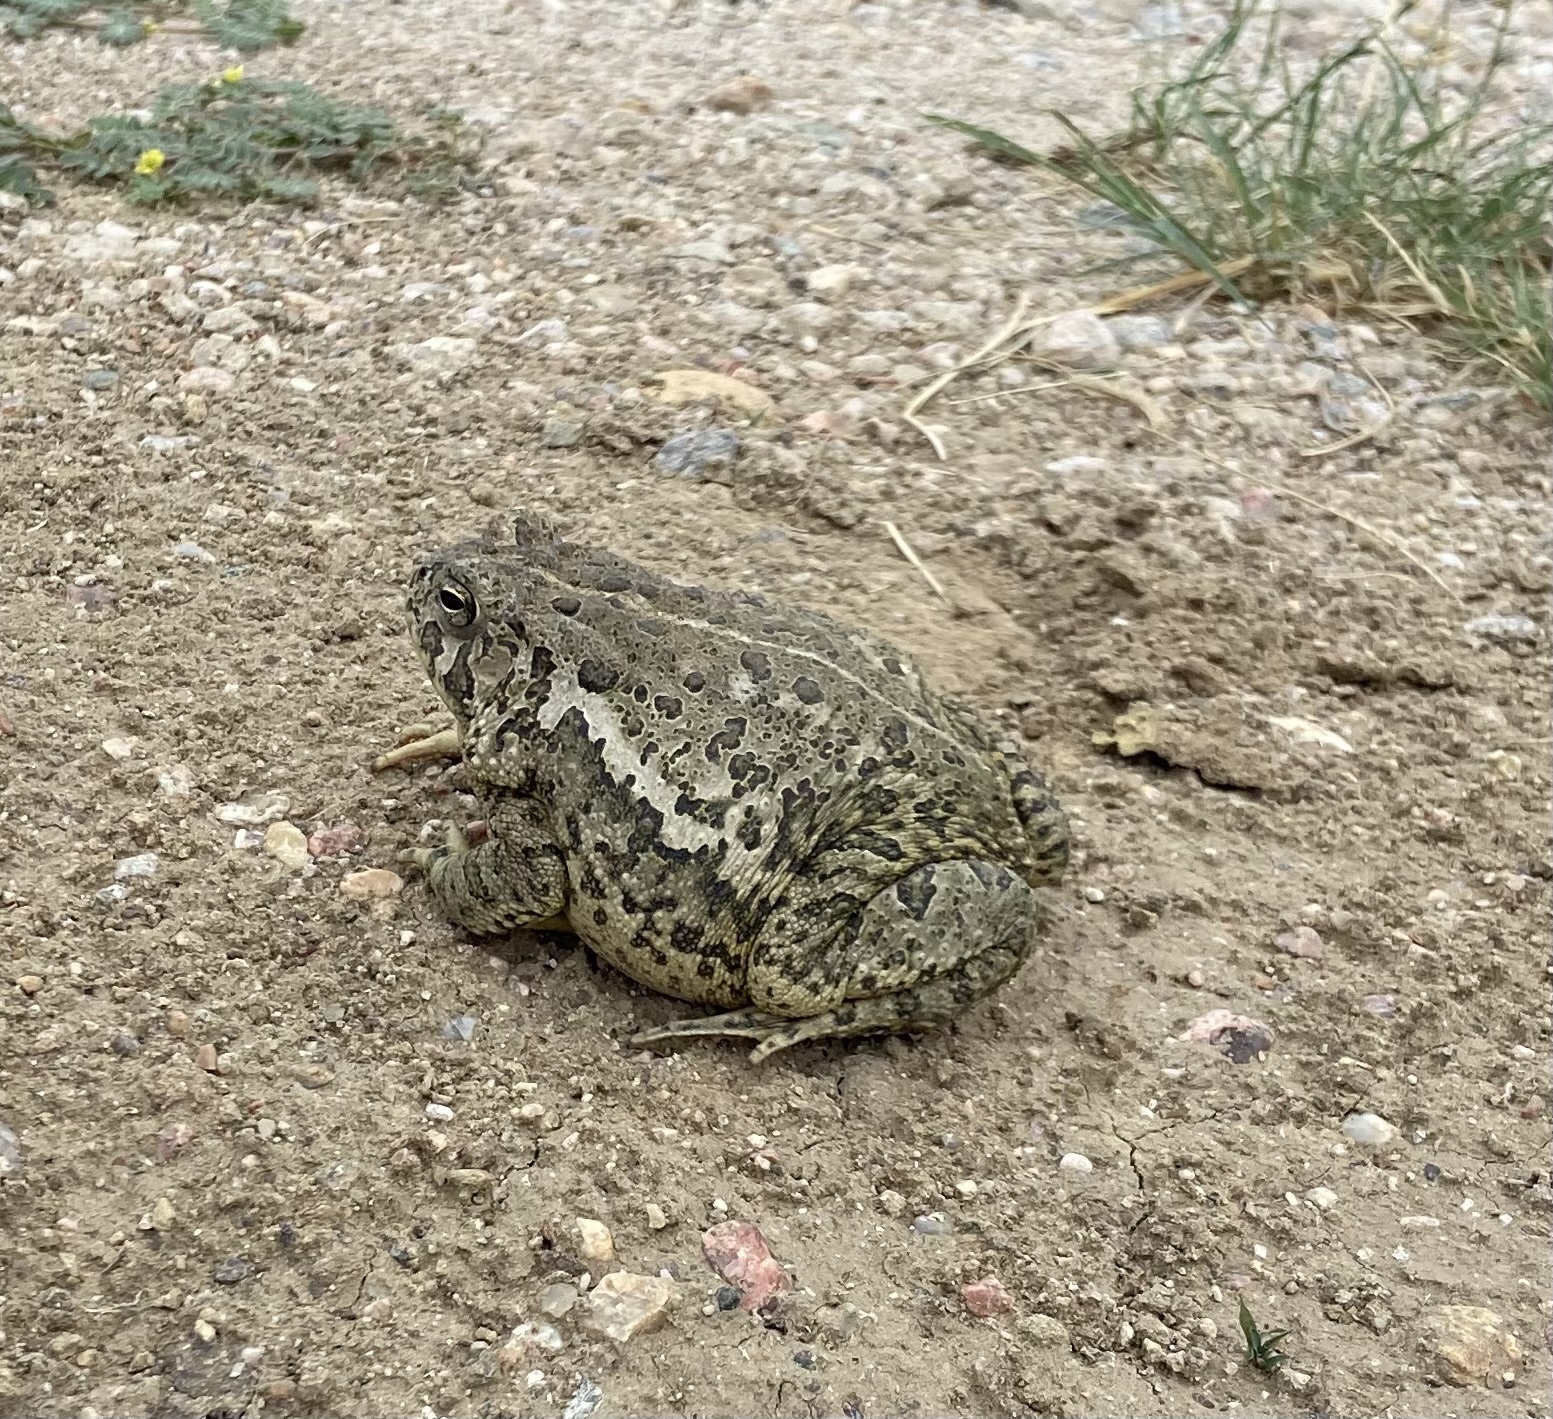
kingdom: Animalia
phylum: Chordata
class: Amphibia
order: Anura
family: Bufonidae
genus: Anaxyrus
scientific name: Anaxyrus woodhousii
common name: Woodhouse's toad
